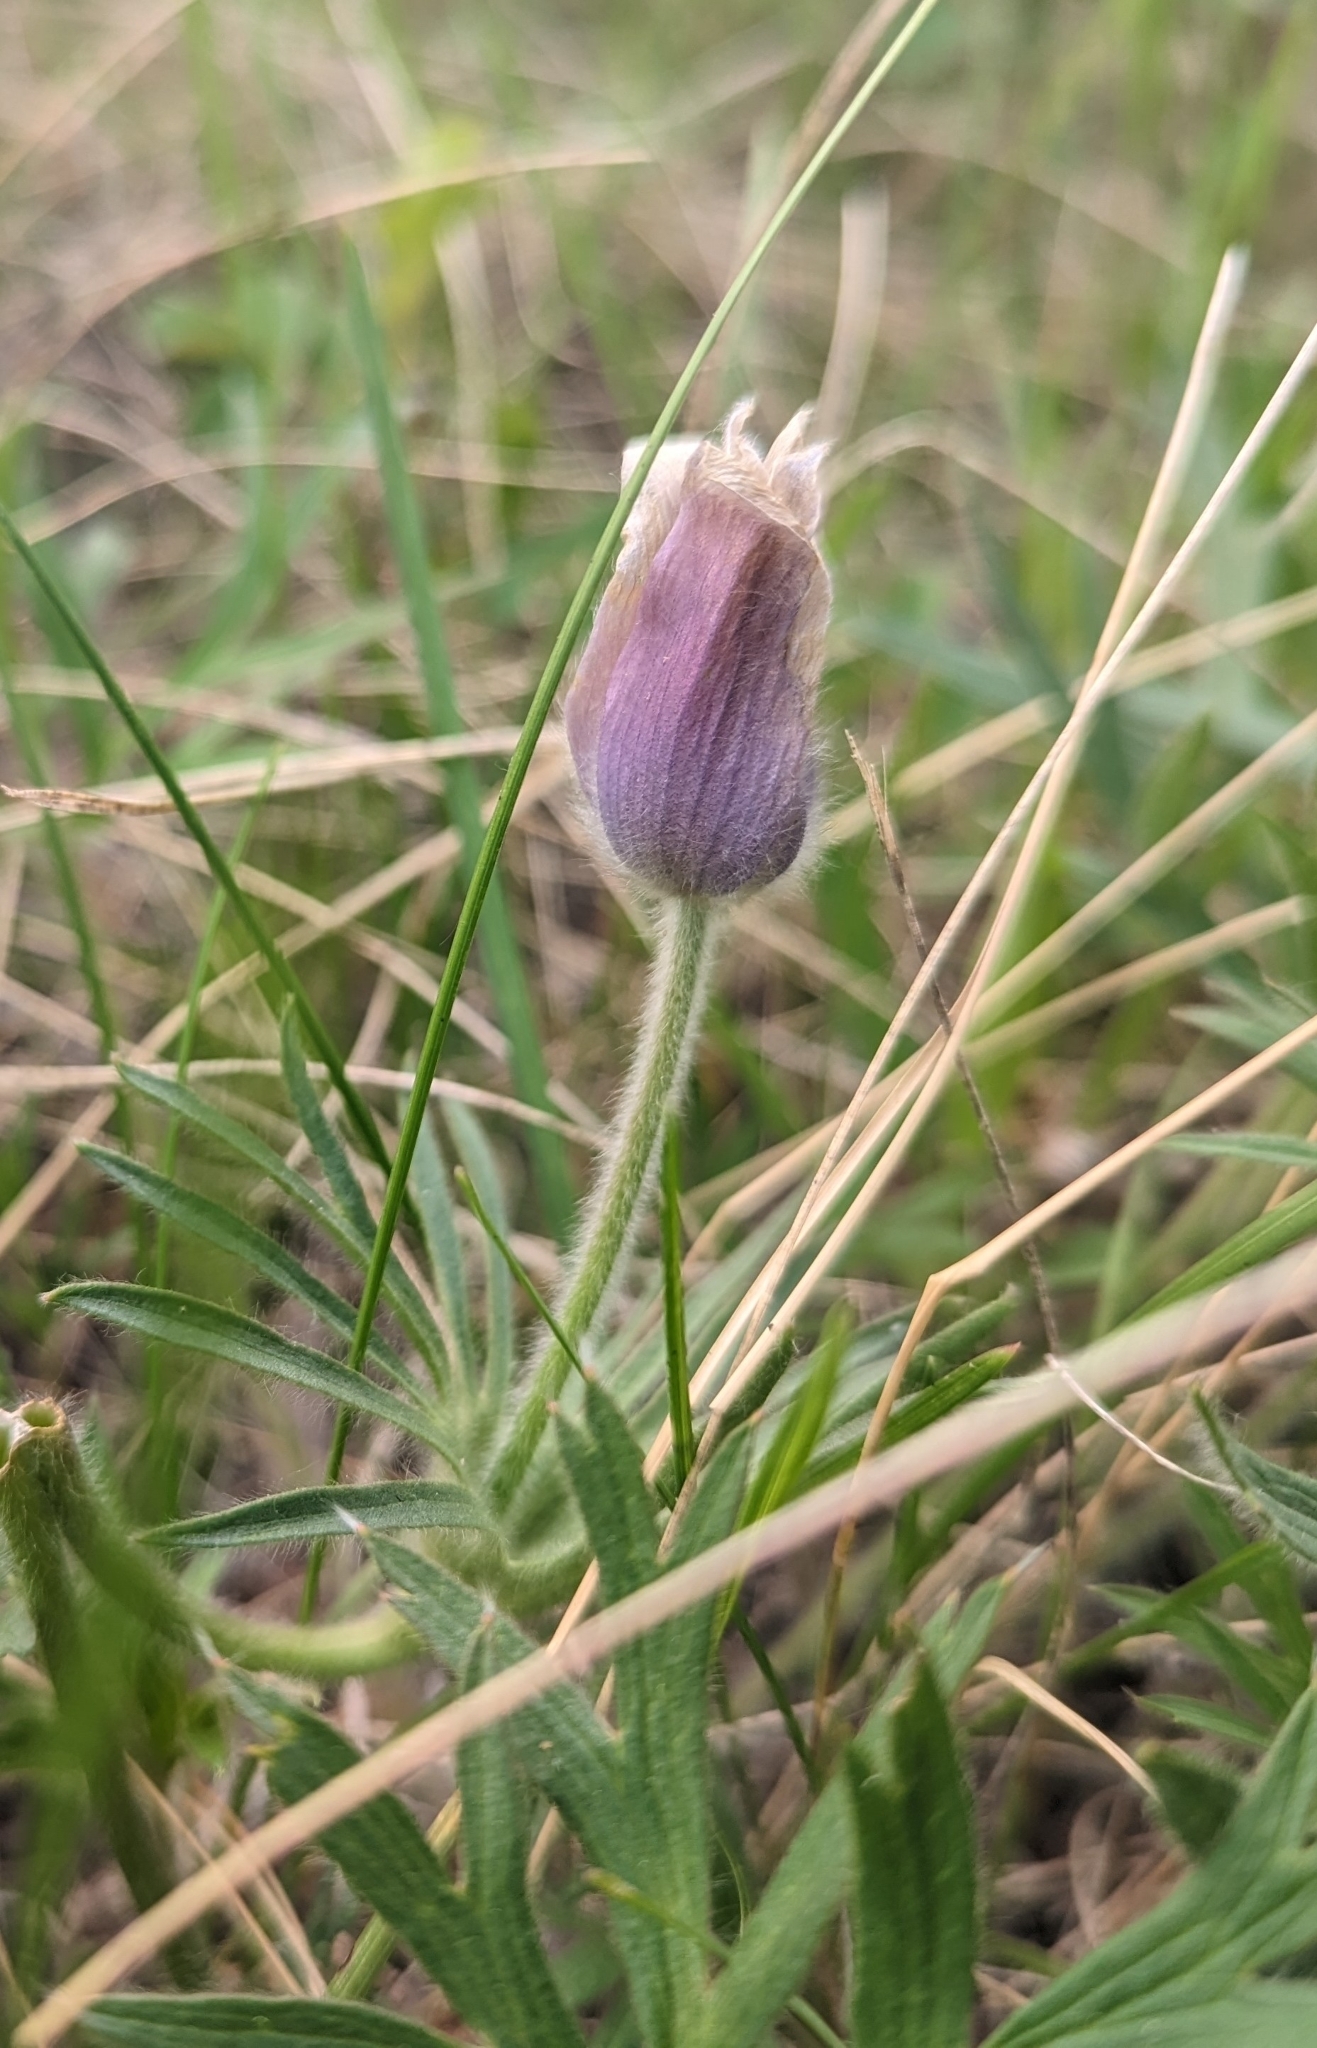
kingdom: Plantae
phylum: Tracheophyta
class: Magnoliopsida
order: Ranunculales
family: Ranunculaceae
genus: Pulsatilla
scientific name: Pulsatilla nuttalliana
